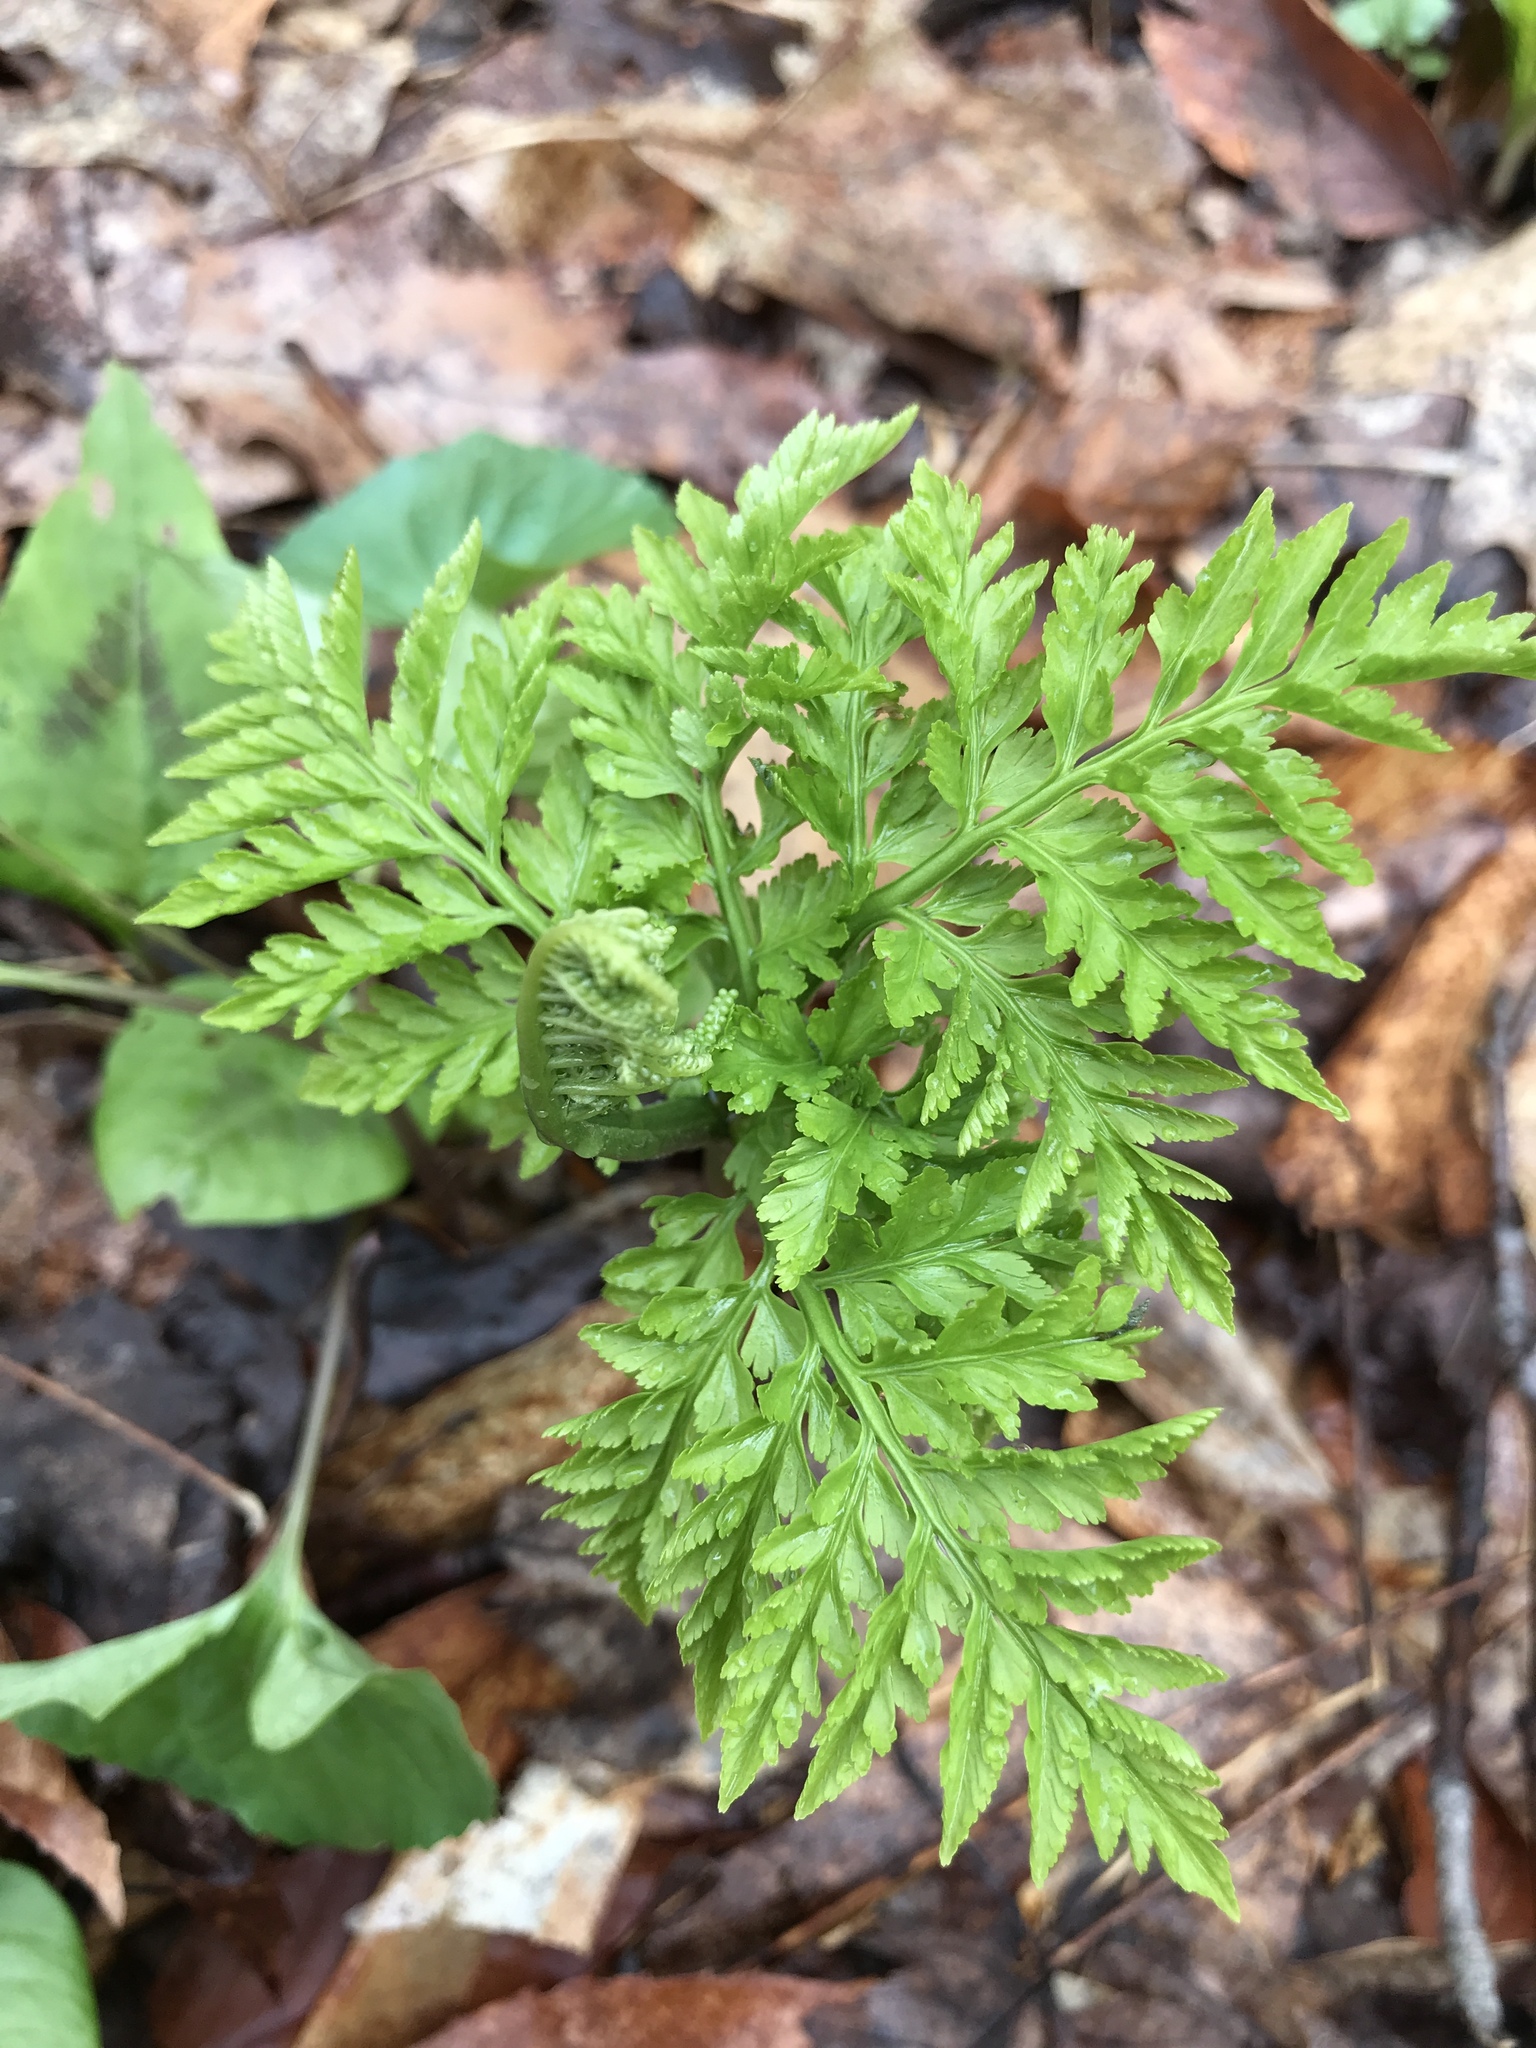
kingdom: Plantae
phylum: Tracheophyta
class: Polypodiopsida
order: Ophioglossales
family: Ophioglossaceae
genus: Botrypus
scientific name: Botrypus virginianus
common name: Common grapefern
